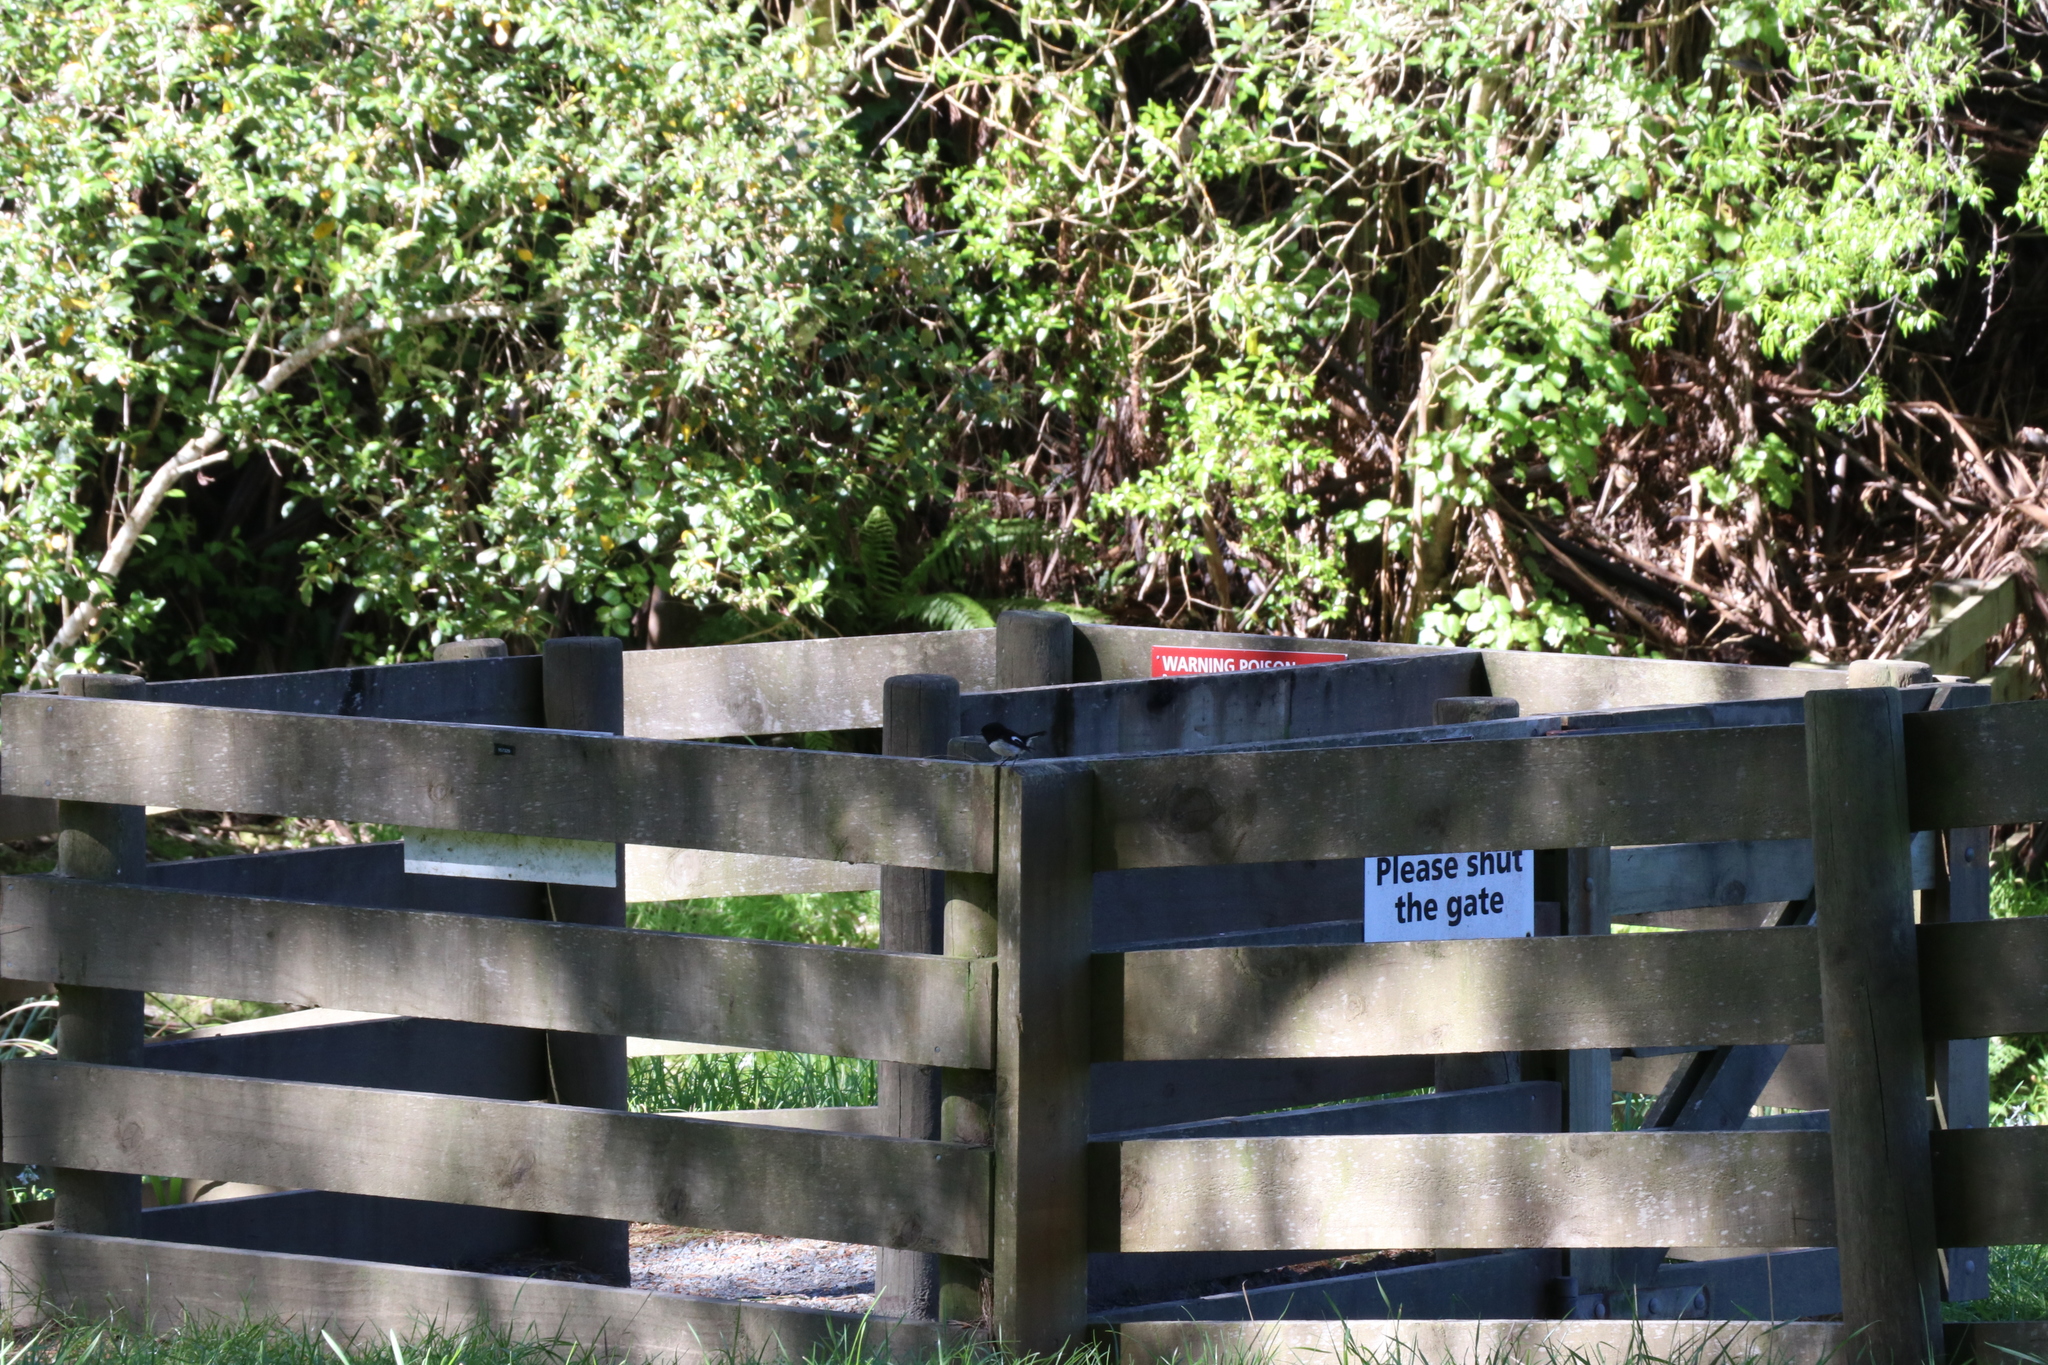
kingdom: Animalia
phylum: Chordata
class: Aves
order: Passeriformes
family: Petroicidae
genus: Petroica
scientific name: Petroica macrocephala
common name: Tomtit
